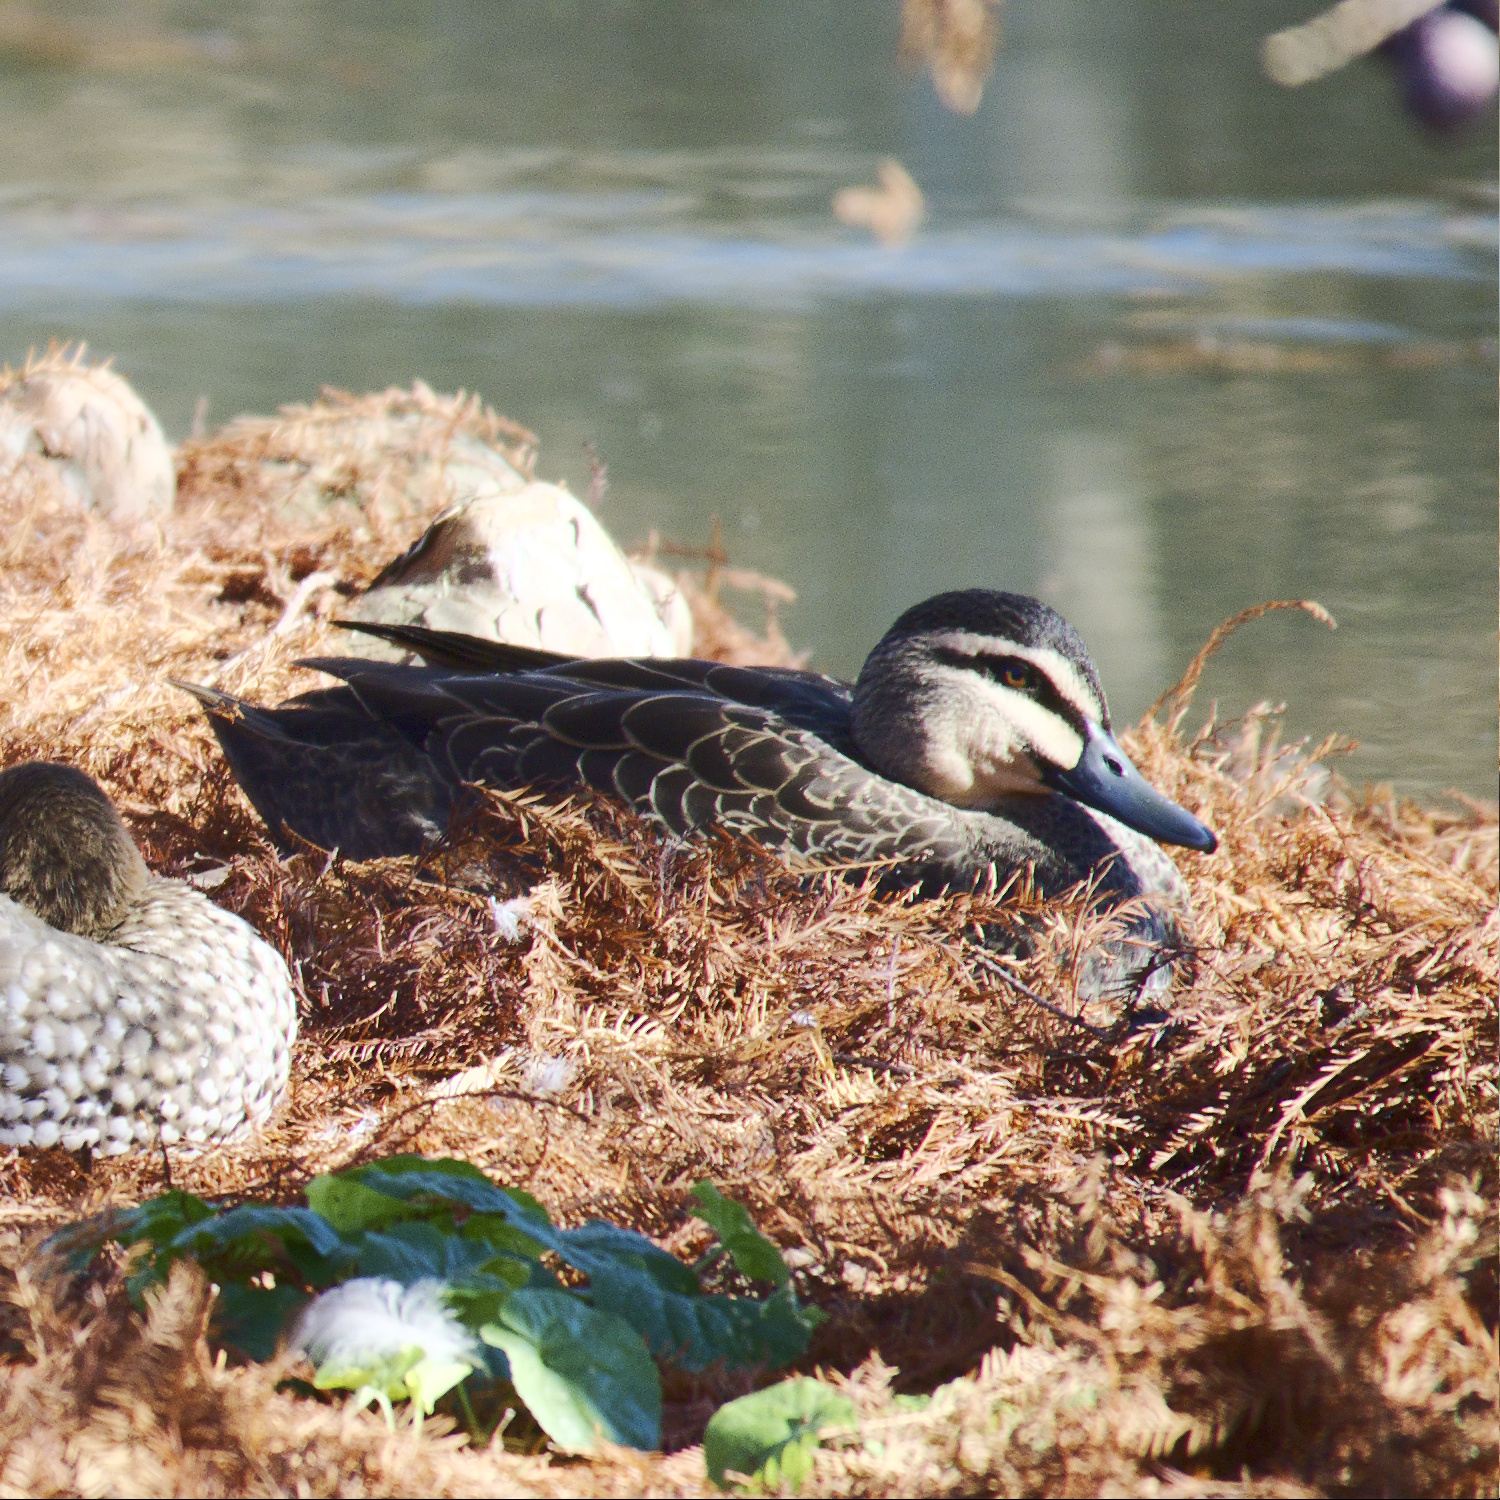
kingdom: Animalia
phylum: Chordata
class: Aves
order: Anseriformes
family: Anatidae
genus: Anas
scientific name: Anas superciliosa
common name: Pacific black duck
